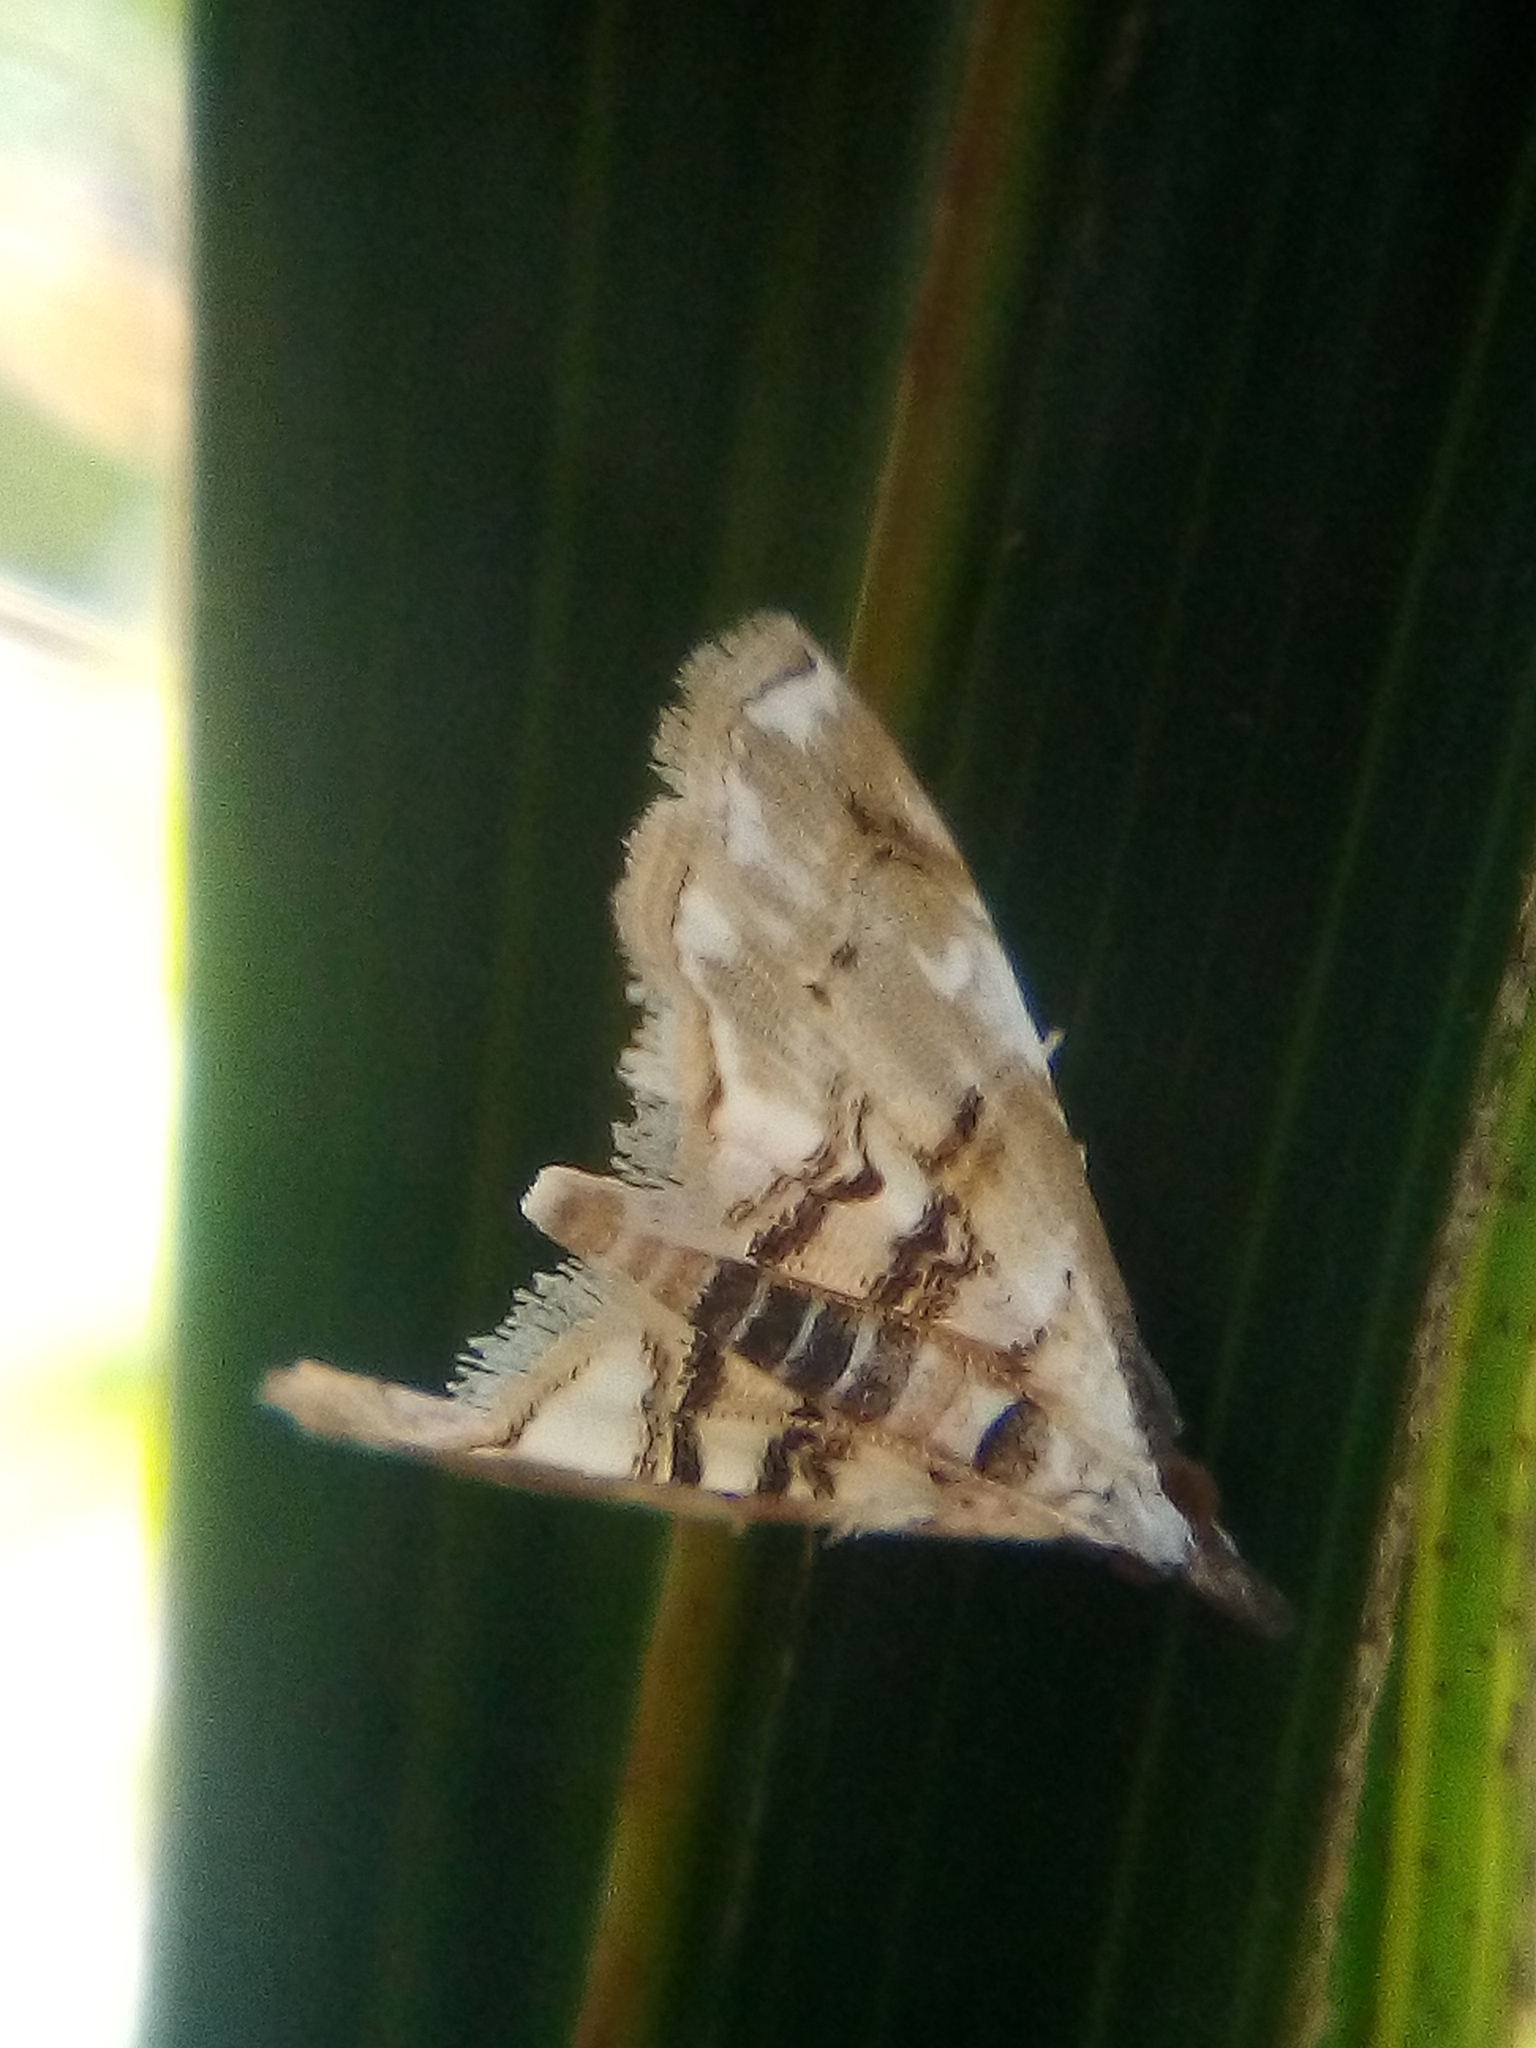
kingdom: Animalia
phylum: Arthropoda
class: Insecta
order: Lepidoptera
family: Crambidae
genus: Trichophysetis
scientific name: Trichophysetis
